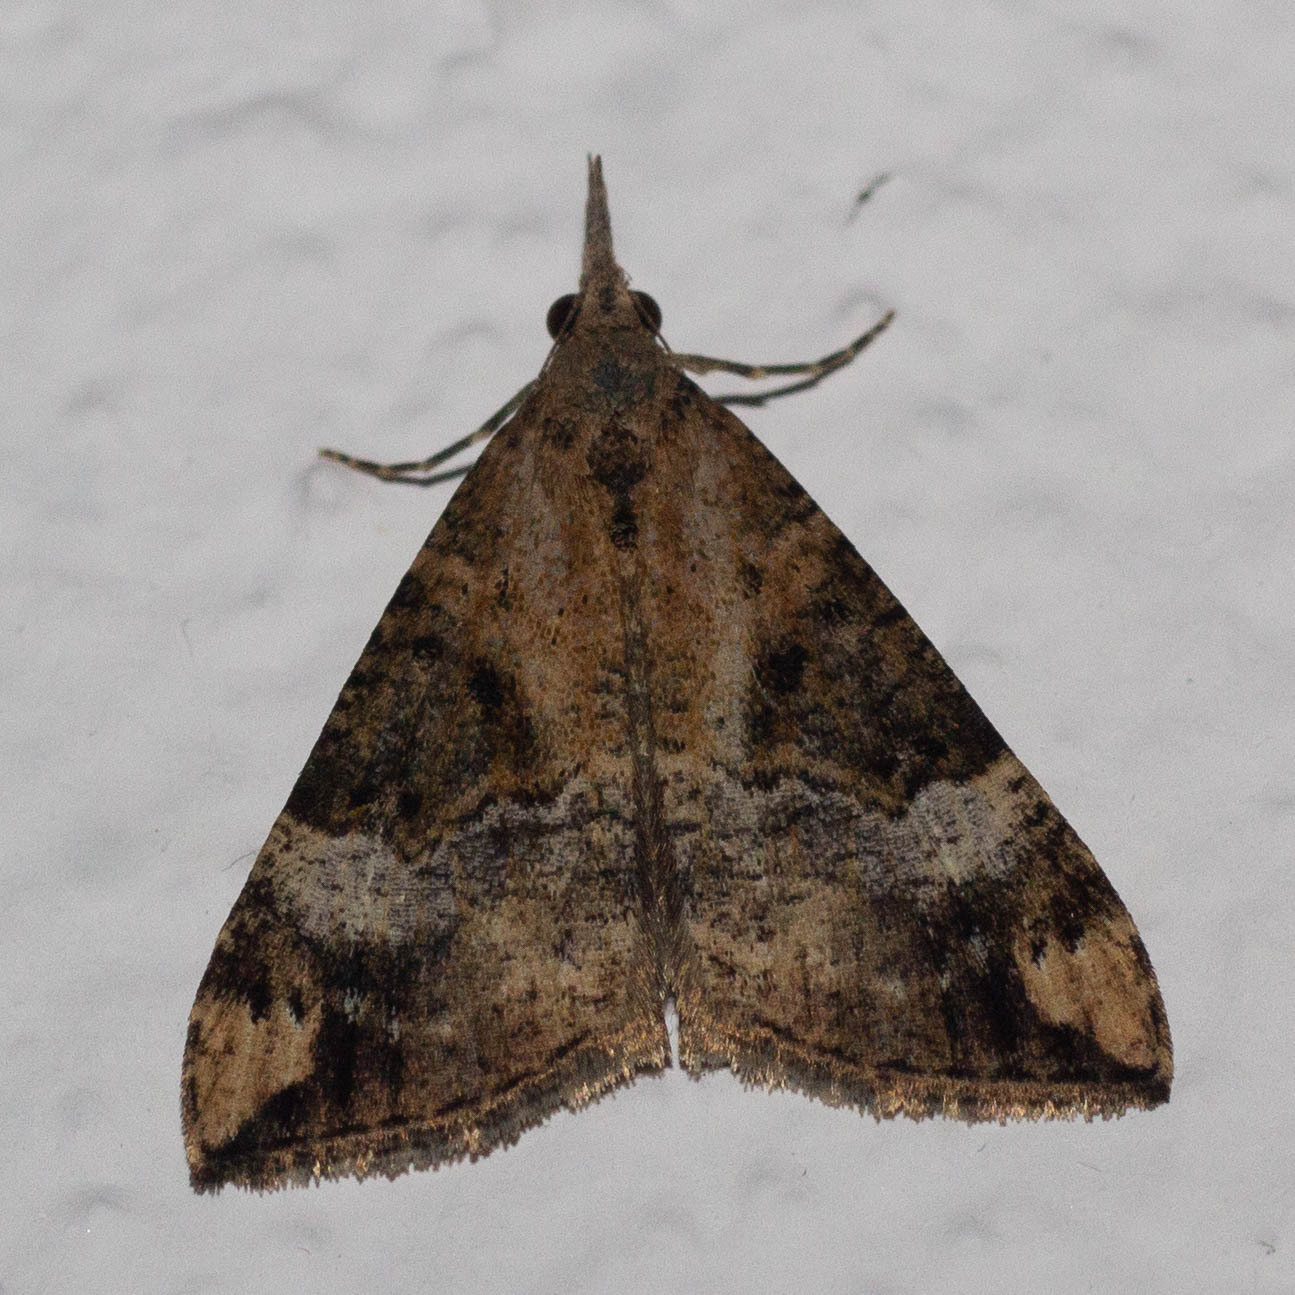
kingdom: Animalia
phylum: Arthropoda
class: Insecta
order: Lepidoptera
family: Erebidae
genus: Hypena
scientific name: Hypena obsitalis
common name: Bloxworth snout
